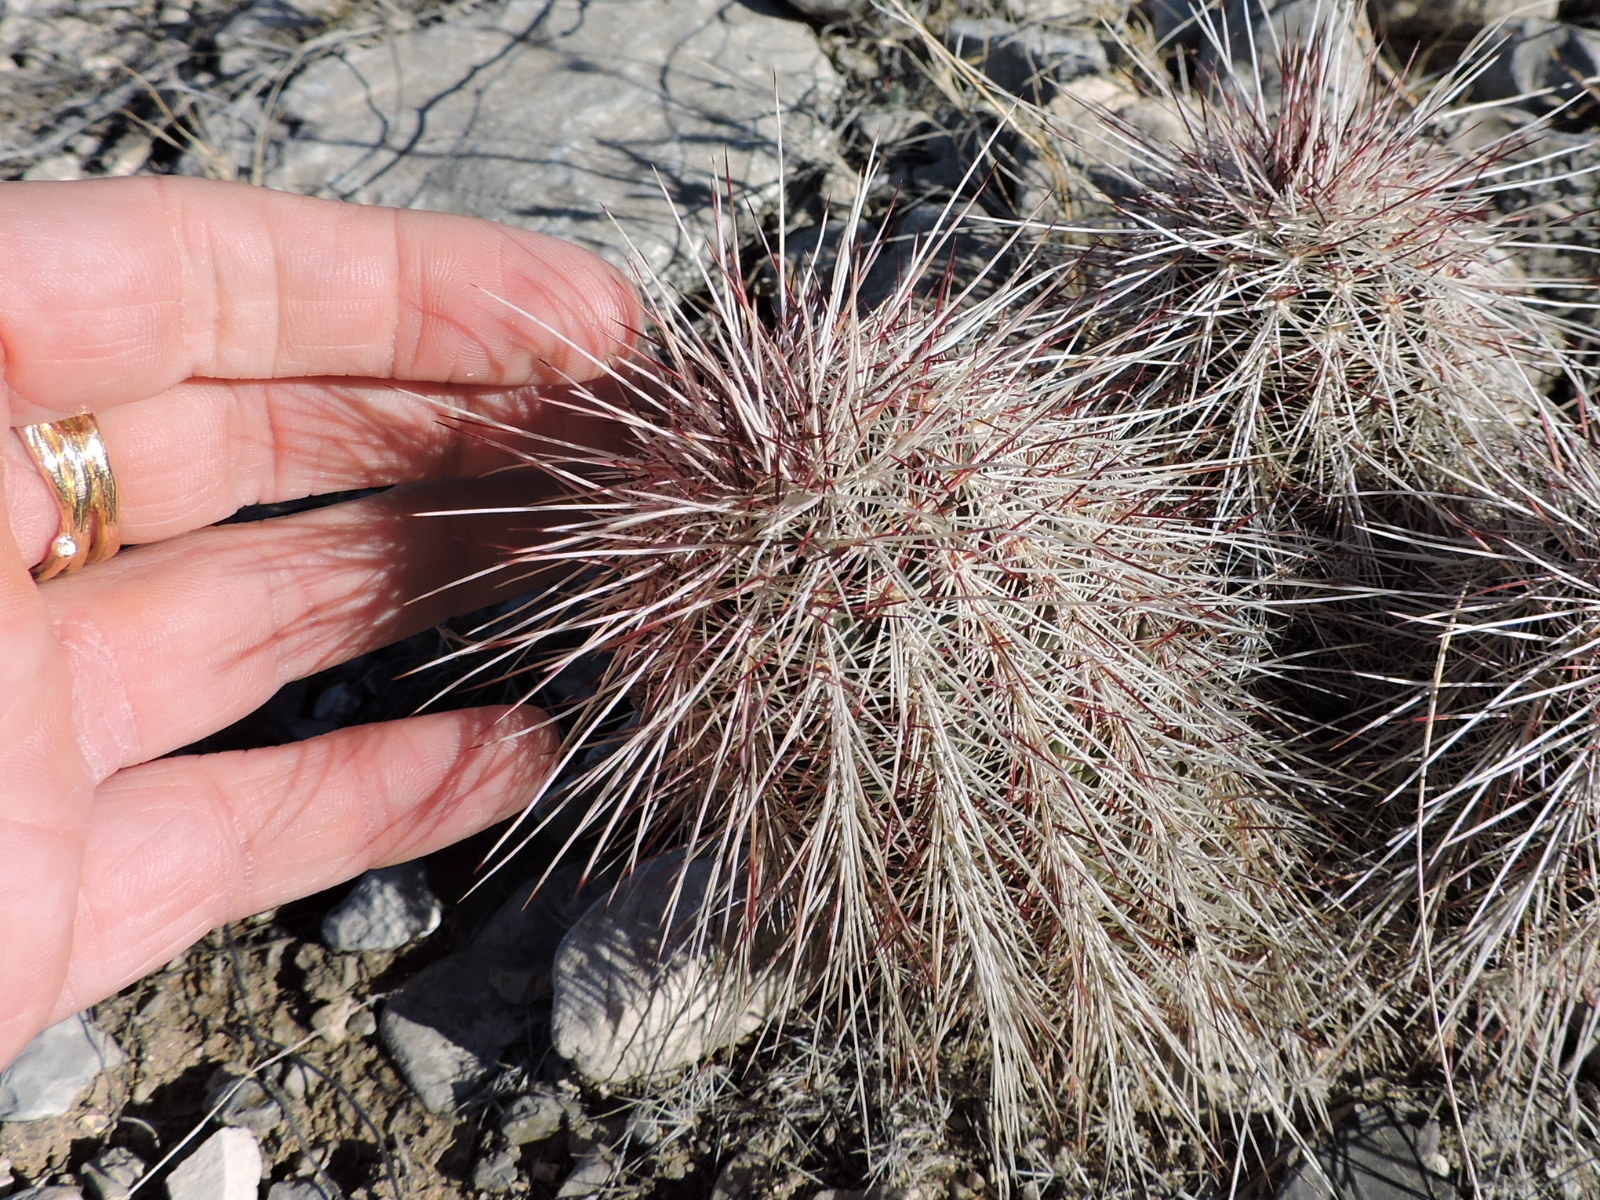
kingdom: Plantae
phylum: Tracheophyta
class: Magnoliopsida
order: Caryophyllales
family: Cactaceae
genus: Echinocereus
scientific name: Echinocereus viridiflorus
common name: Nylon hedgehog cactus
